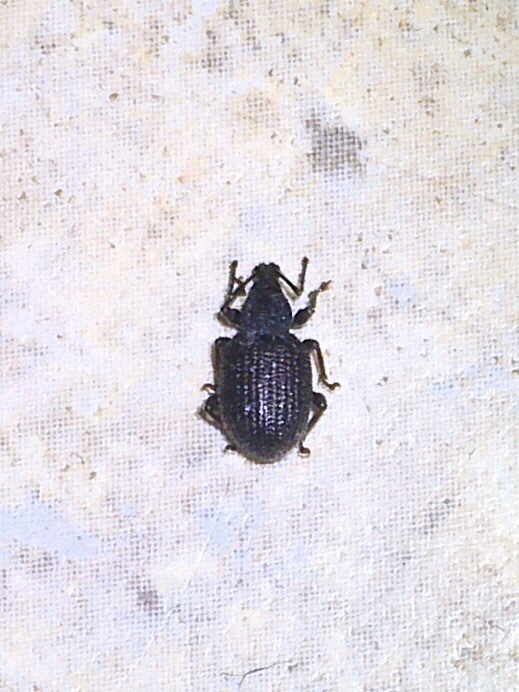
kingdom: Animalia
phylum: Arthropoda
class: Insecta
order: Coleoptera
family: Curculionidae
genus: Otiorhynchus
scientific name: Otiorhynchus rugosostriatus
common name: Weevil
